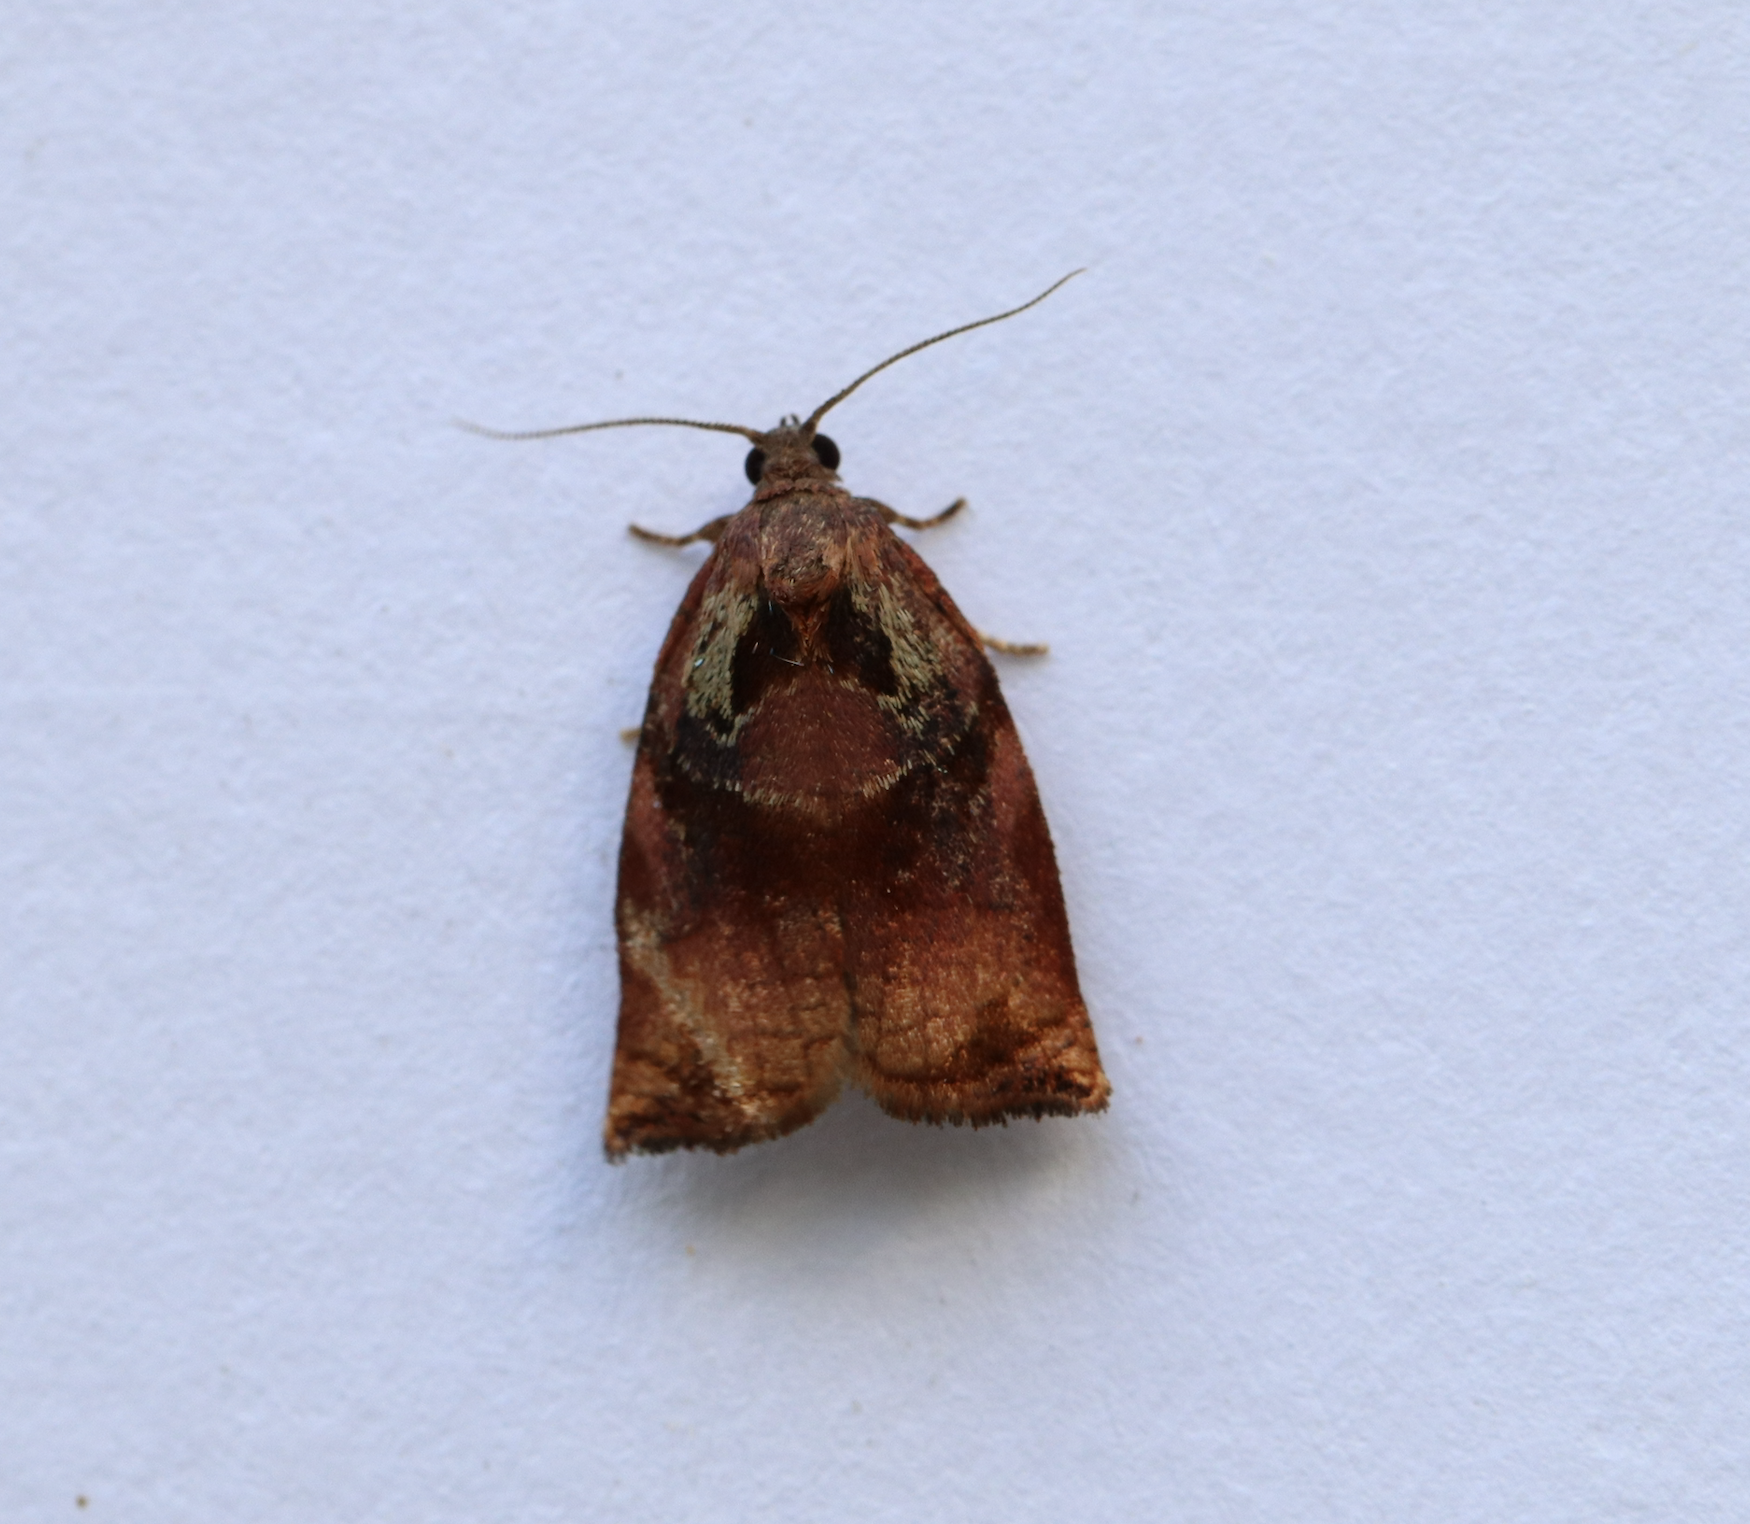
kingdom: Animalia
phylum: Arthropoda
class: Insecta
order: Lepidoptera
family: Tortricidae
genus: Archips
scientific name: Archips podana
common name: Large fruit-tree tortrix
